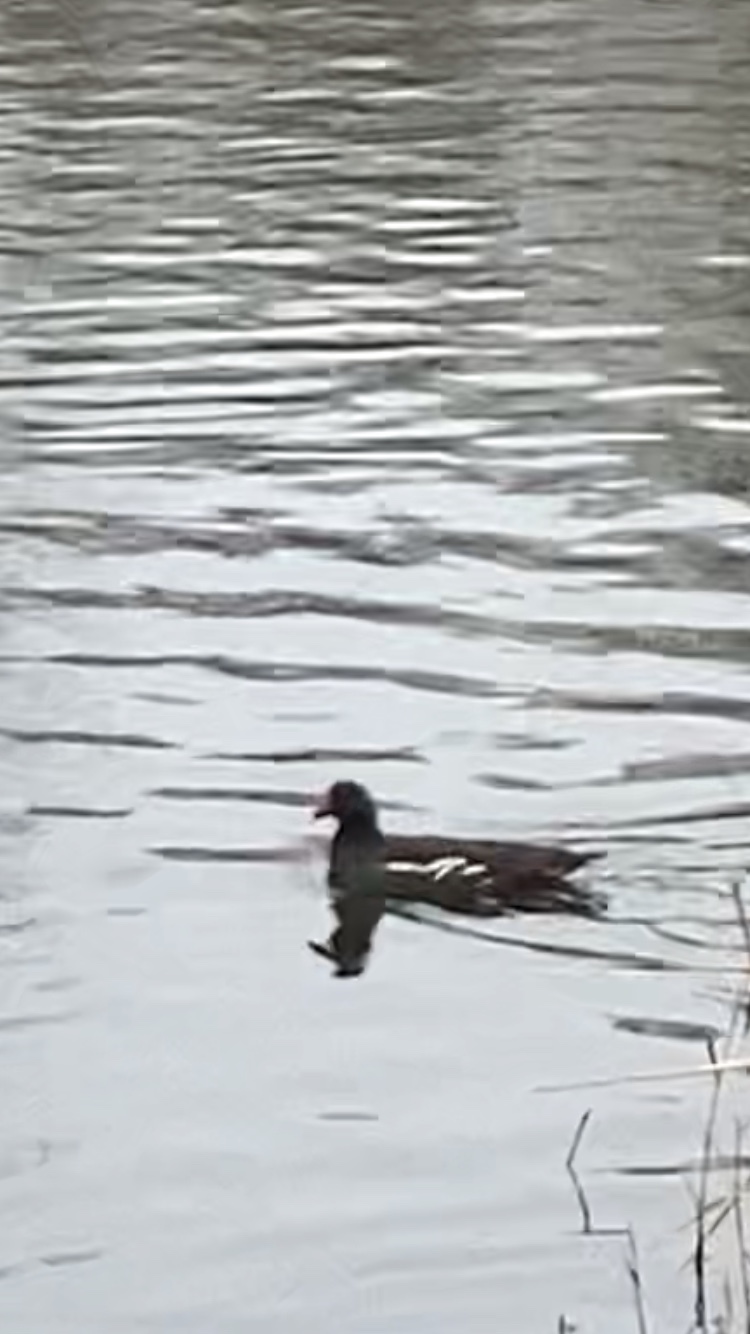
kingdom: Animalia
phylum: Chordata
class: Aves
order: Gruiformes
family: Rallidae
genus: Gallinula
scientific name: Gallinula chloropus
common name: Common moorhen
